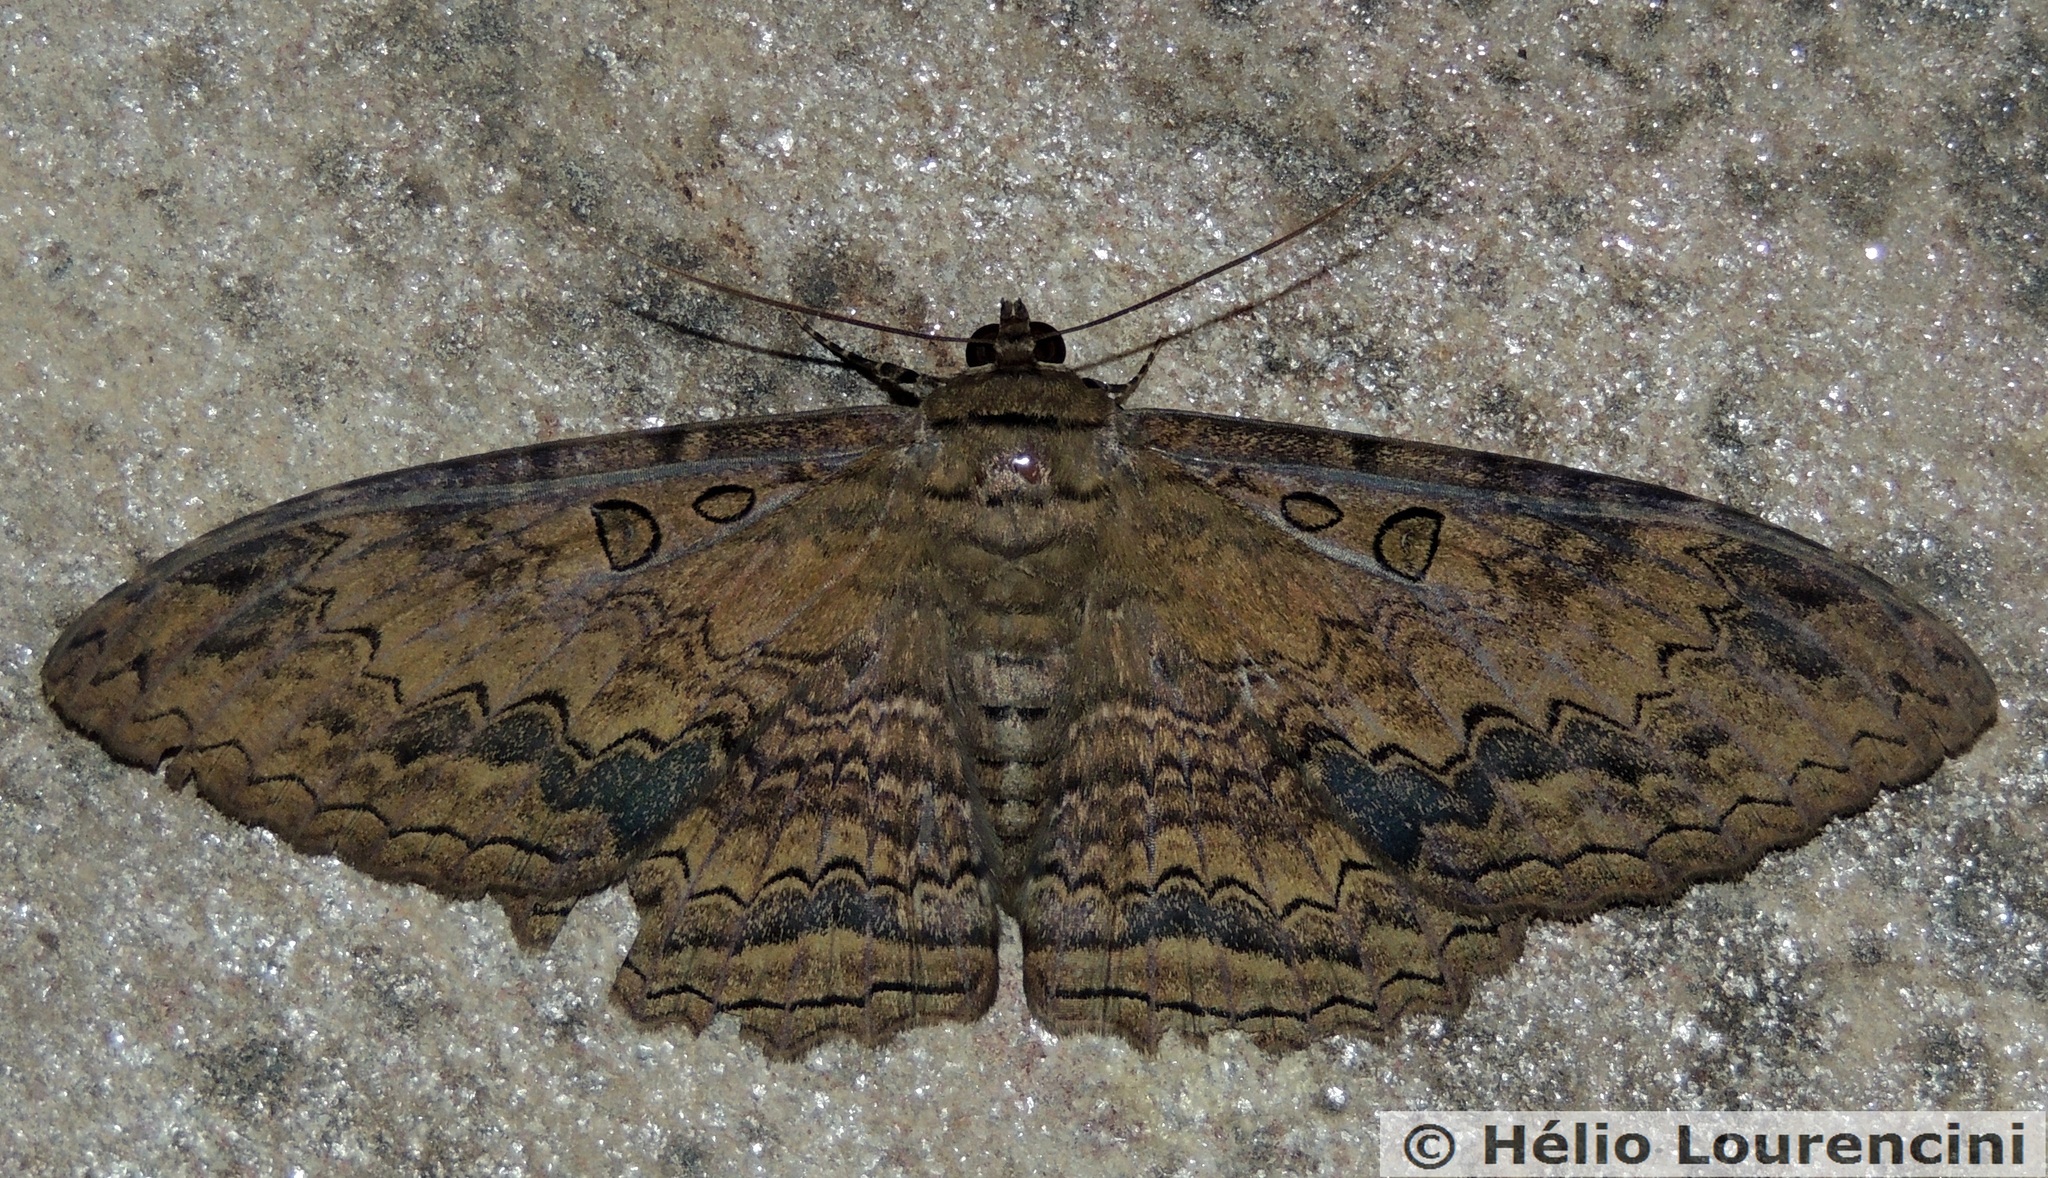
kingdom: Animalia
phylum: Arthropoda
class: Insecta
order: Lepidoptera
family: Erebidae
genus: Ascalapha
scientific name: Ascalapha odorata
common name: Black witch
